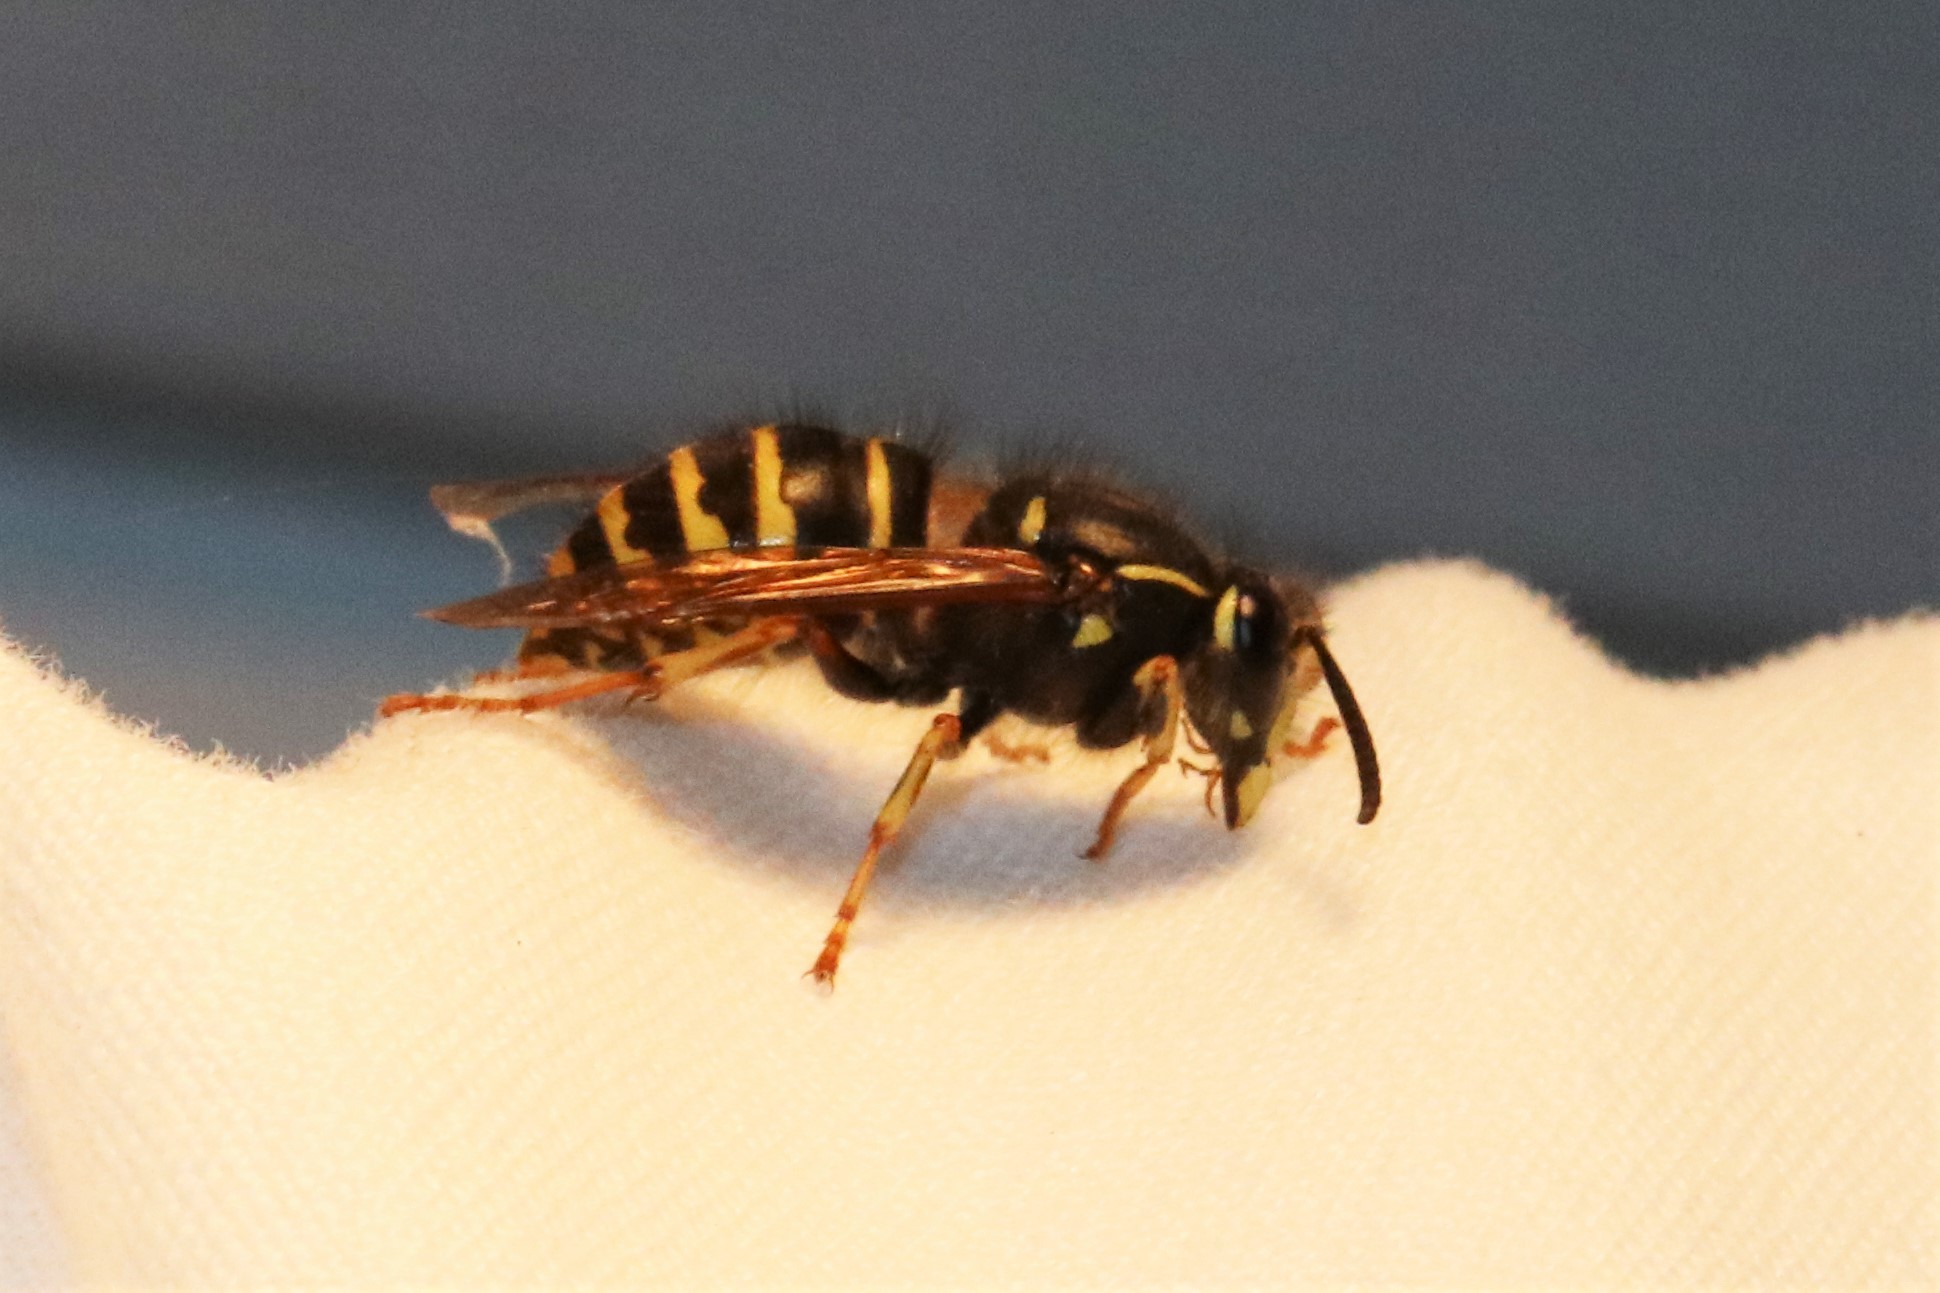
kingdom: Animalia
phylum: Arthropoda
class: Insecta
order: Hymenoptera
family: Vespidae
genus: Dolichovespula
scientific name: Dolichovespula norvegicoides
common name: Northern aerial yellowjacket
